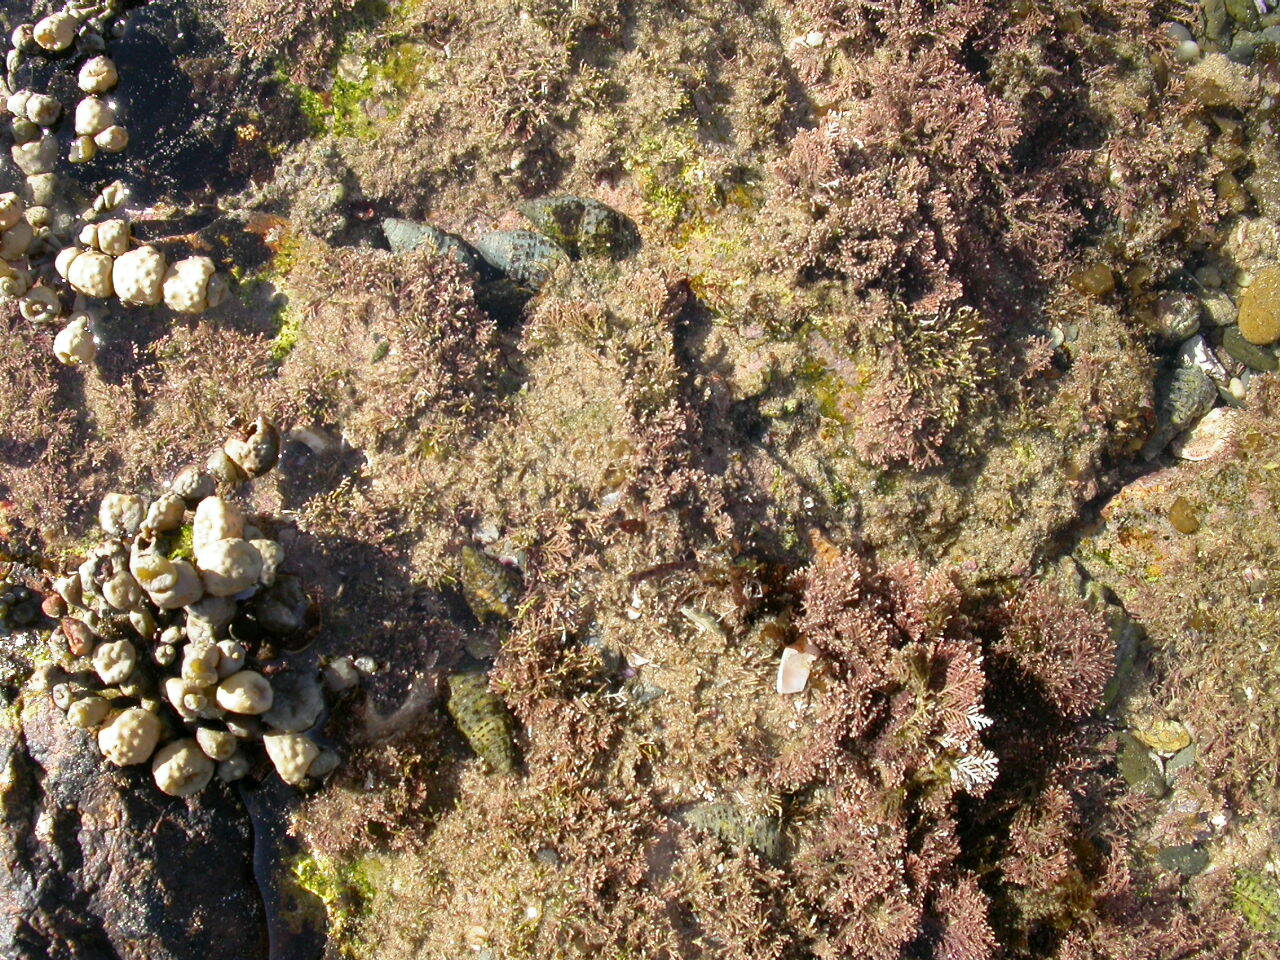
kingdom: Animalia
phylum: Mollusca
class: Gastropoda
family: Cerithiidae
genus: Clypeomorus
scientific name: Clypeomorus petrosa
